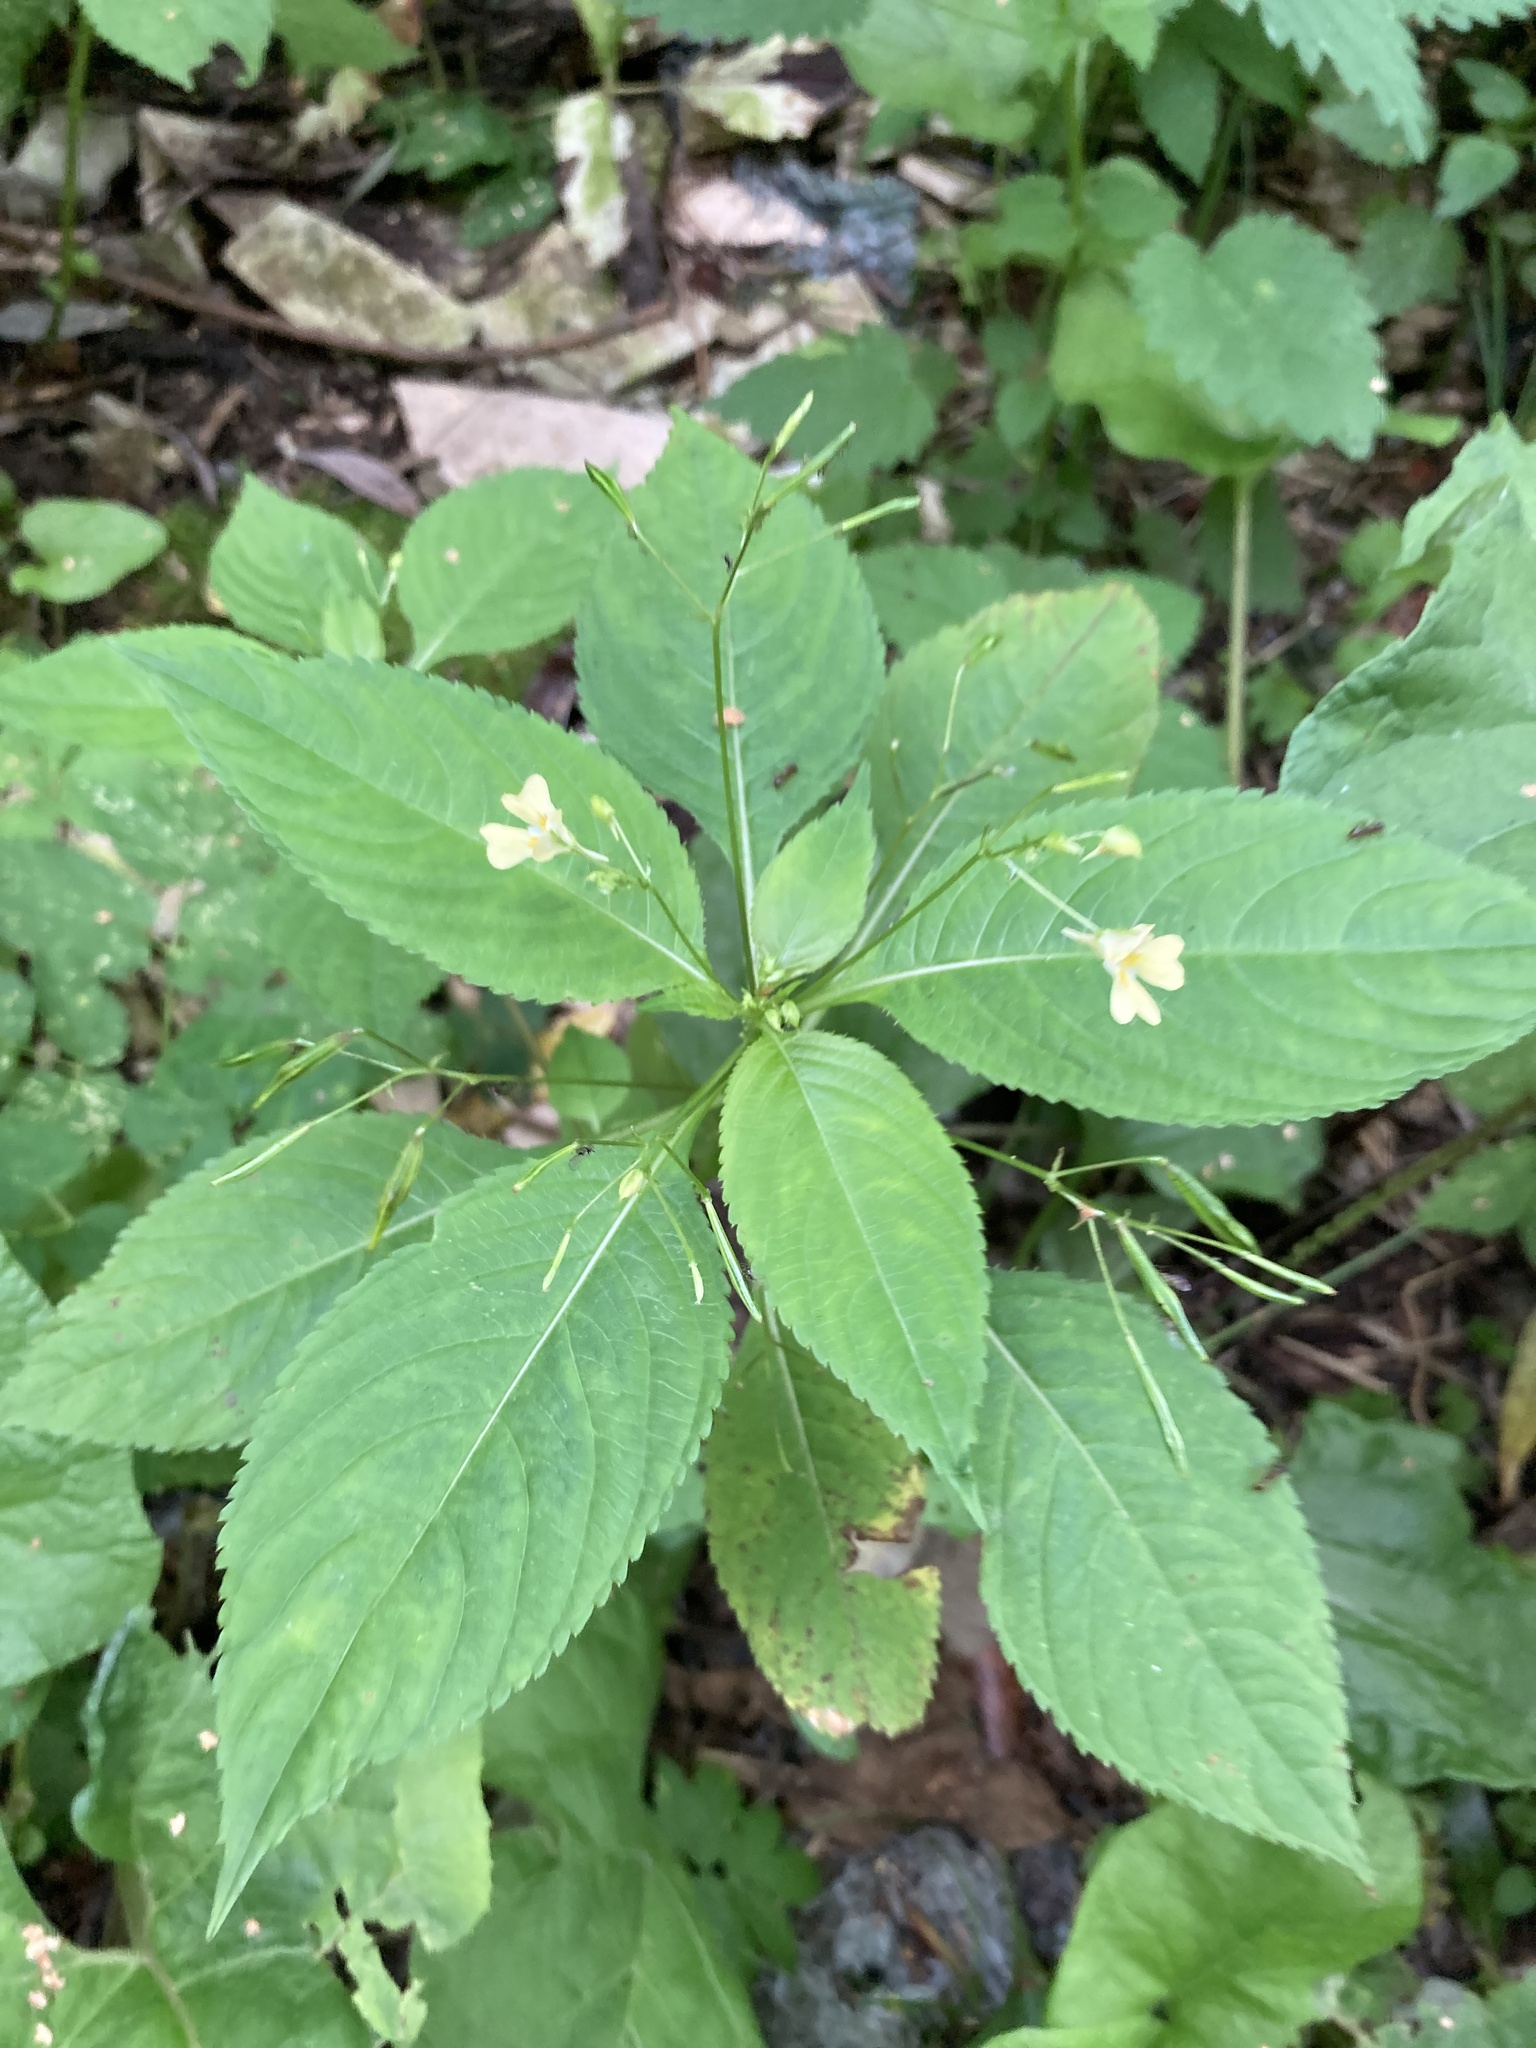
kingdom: Plantae
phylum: Tracheophyta
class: Magnoliopsida
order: Ericales
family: Balsaminaceae
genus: Impatiens
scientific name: Impatiens parviflora
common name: Small balsam
